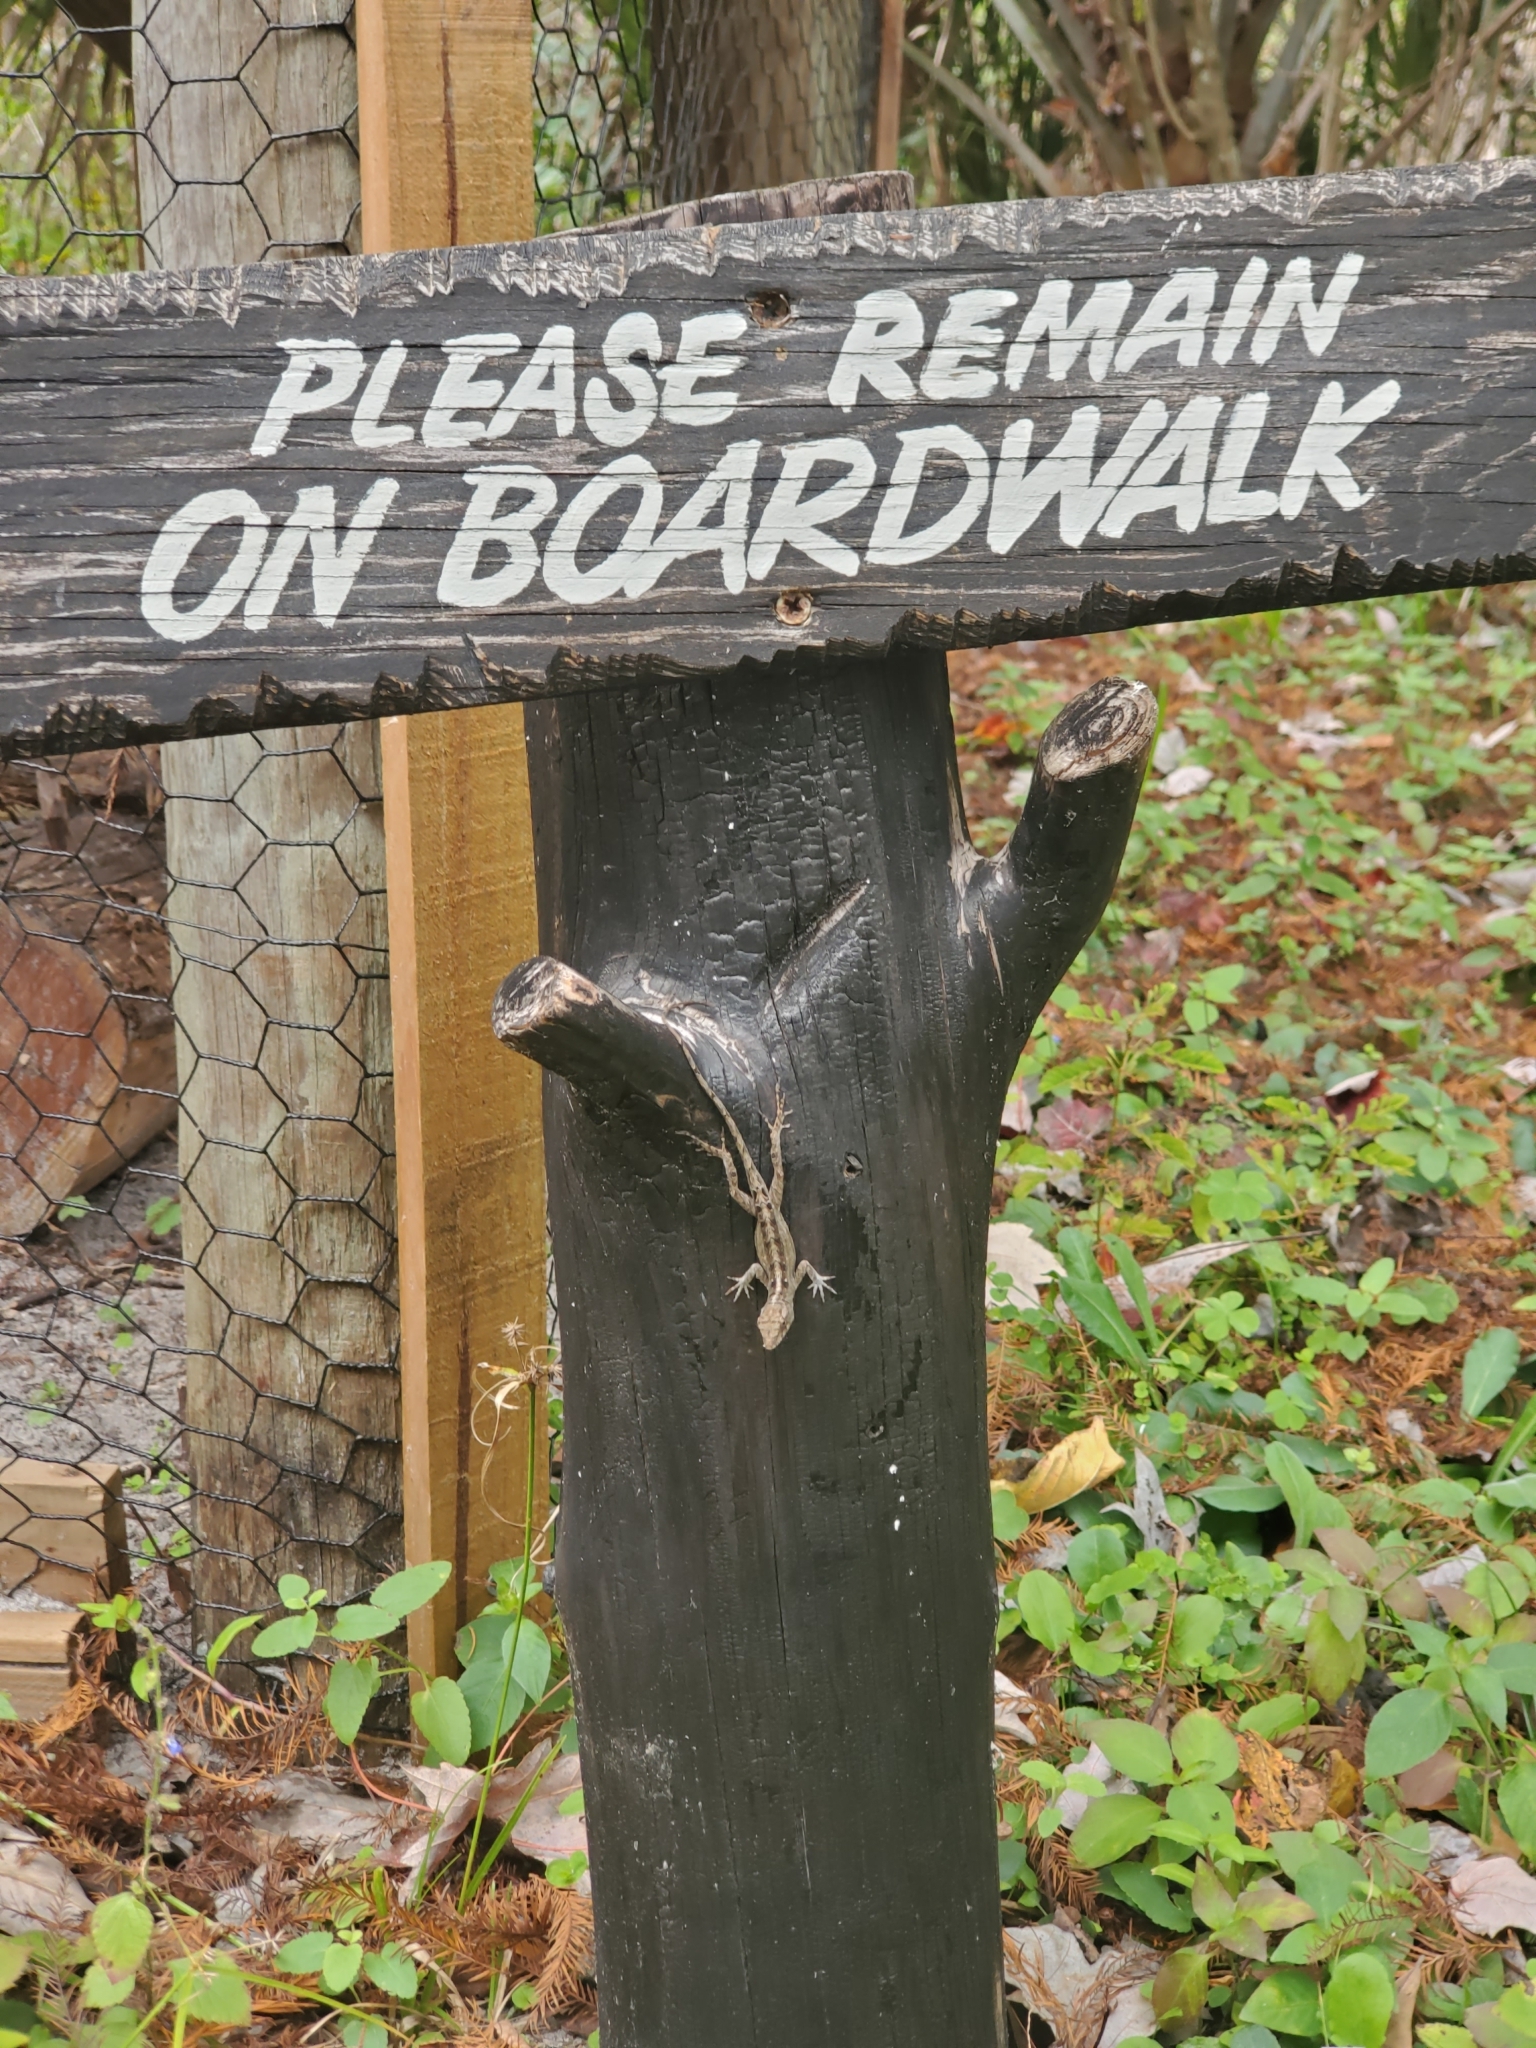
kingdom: Animalia
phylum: Chordata
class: Squamata
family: Dactyloidae
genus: Anolis
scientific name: Anolis sagrei
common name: Brown anole
